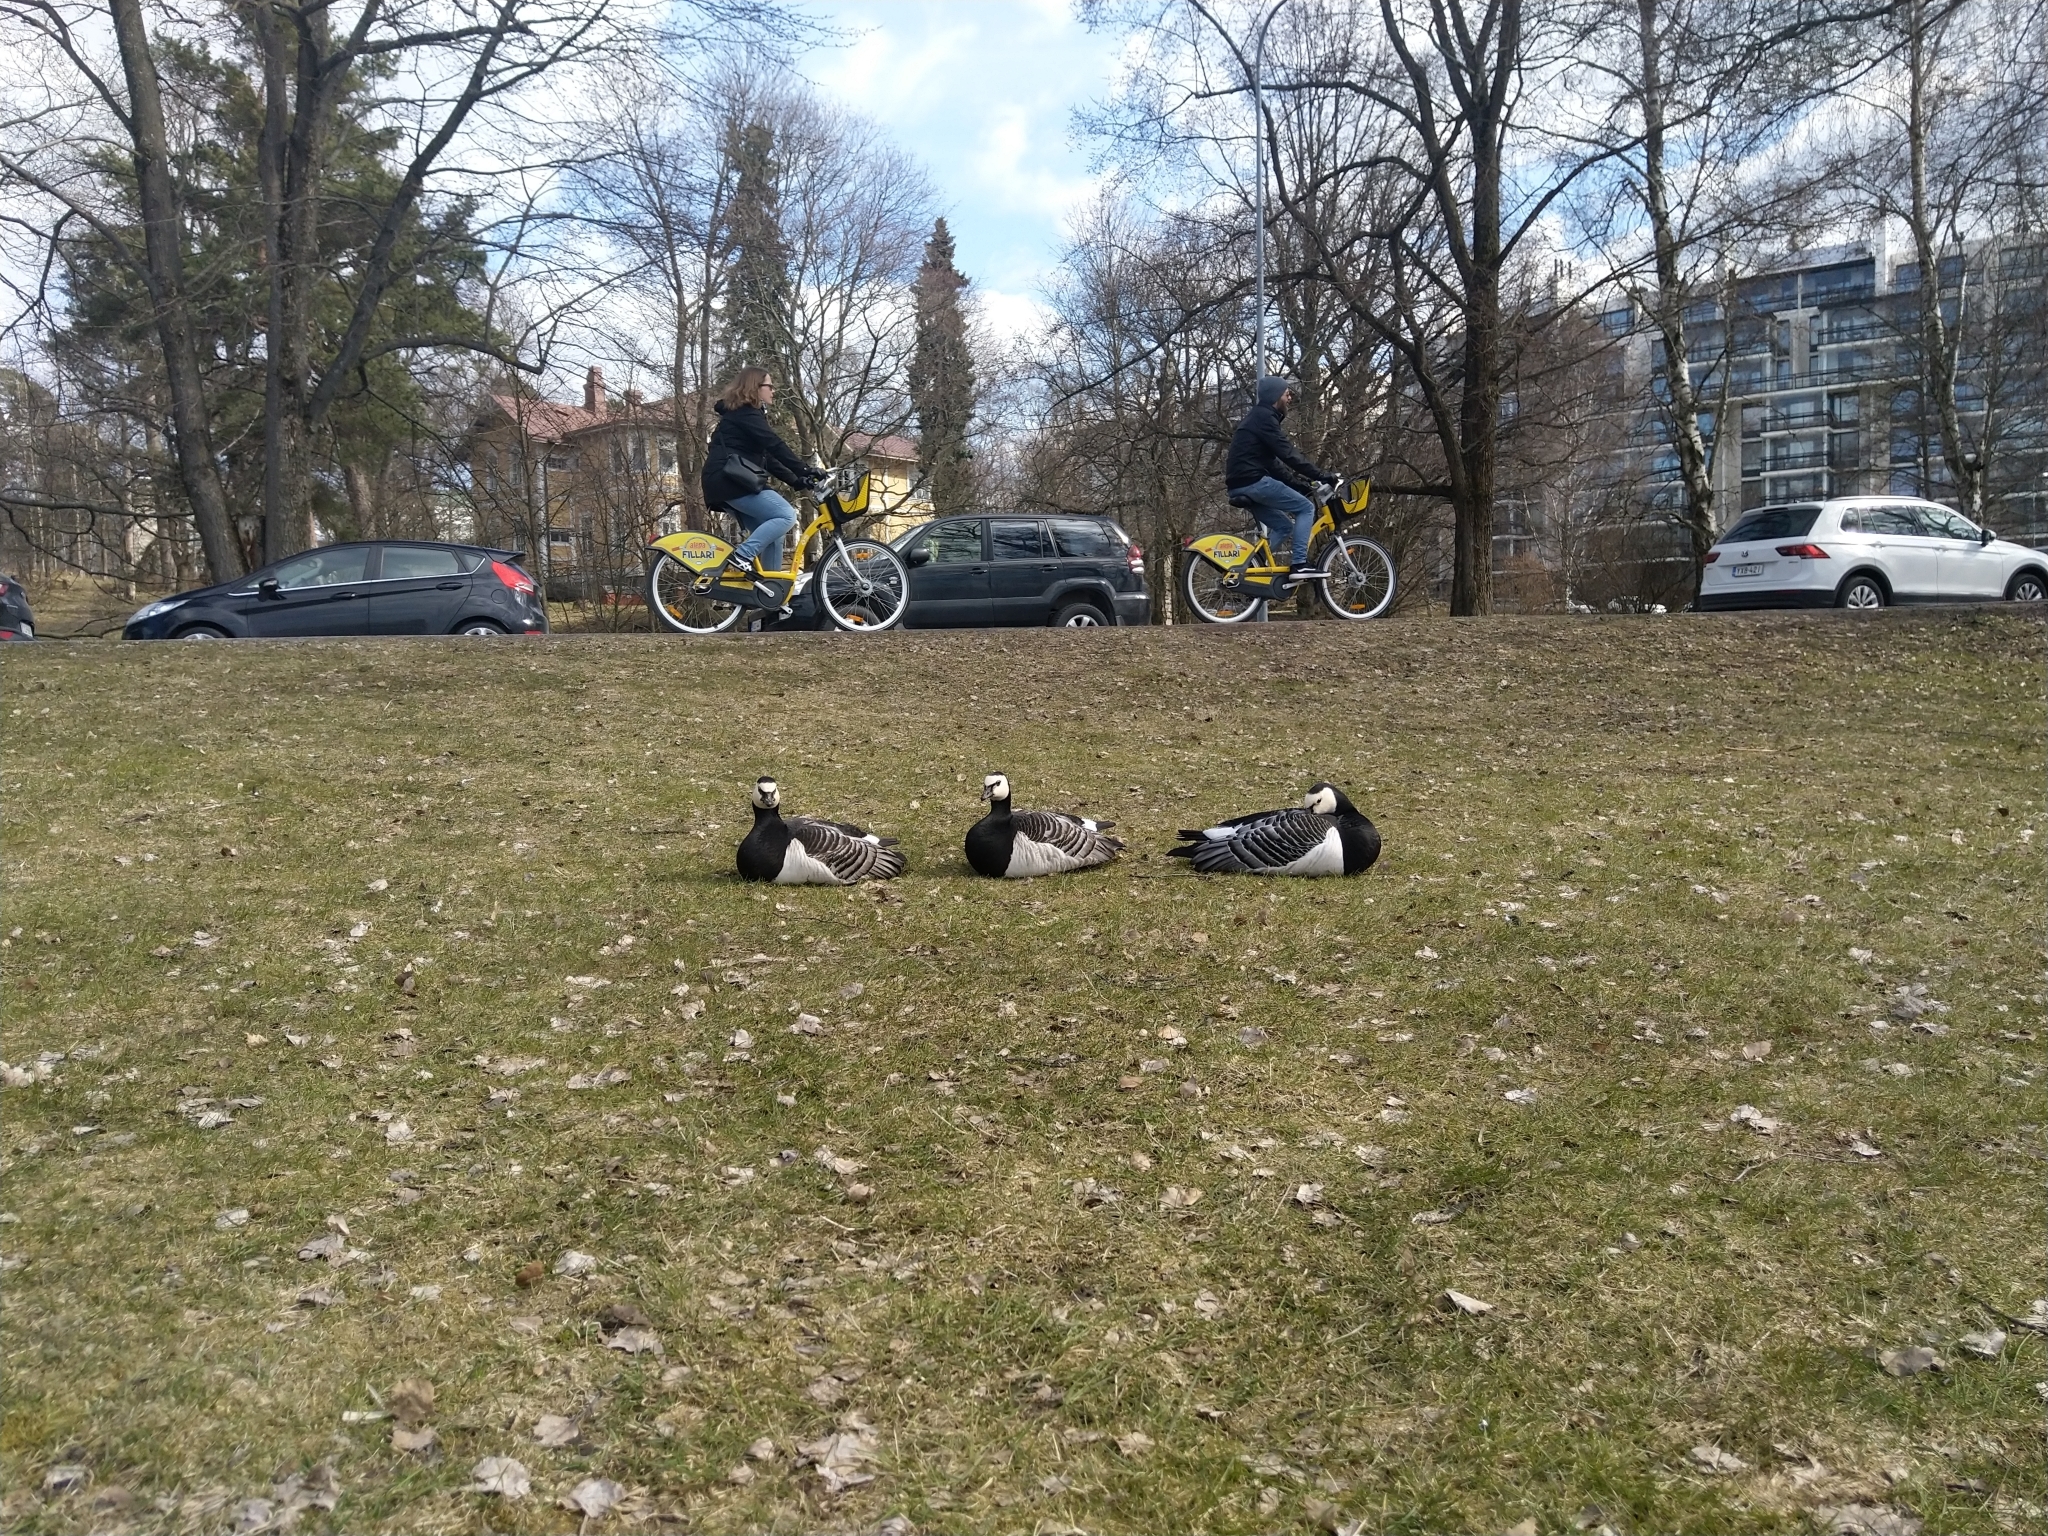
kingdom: Animalia
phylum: Chordata
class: Aves
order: Anseriformes
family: Anatidae
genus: Branta
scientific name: Branta leucopsis
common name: Barnacle goose
